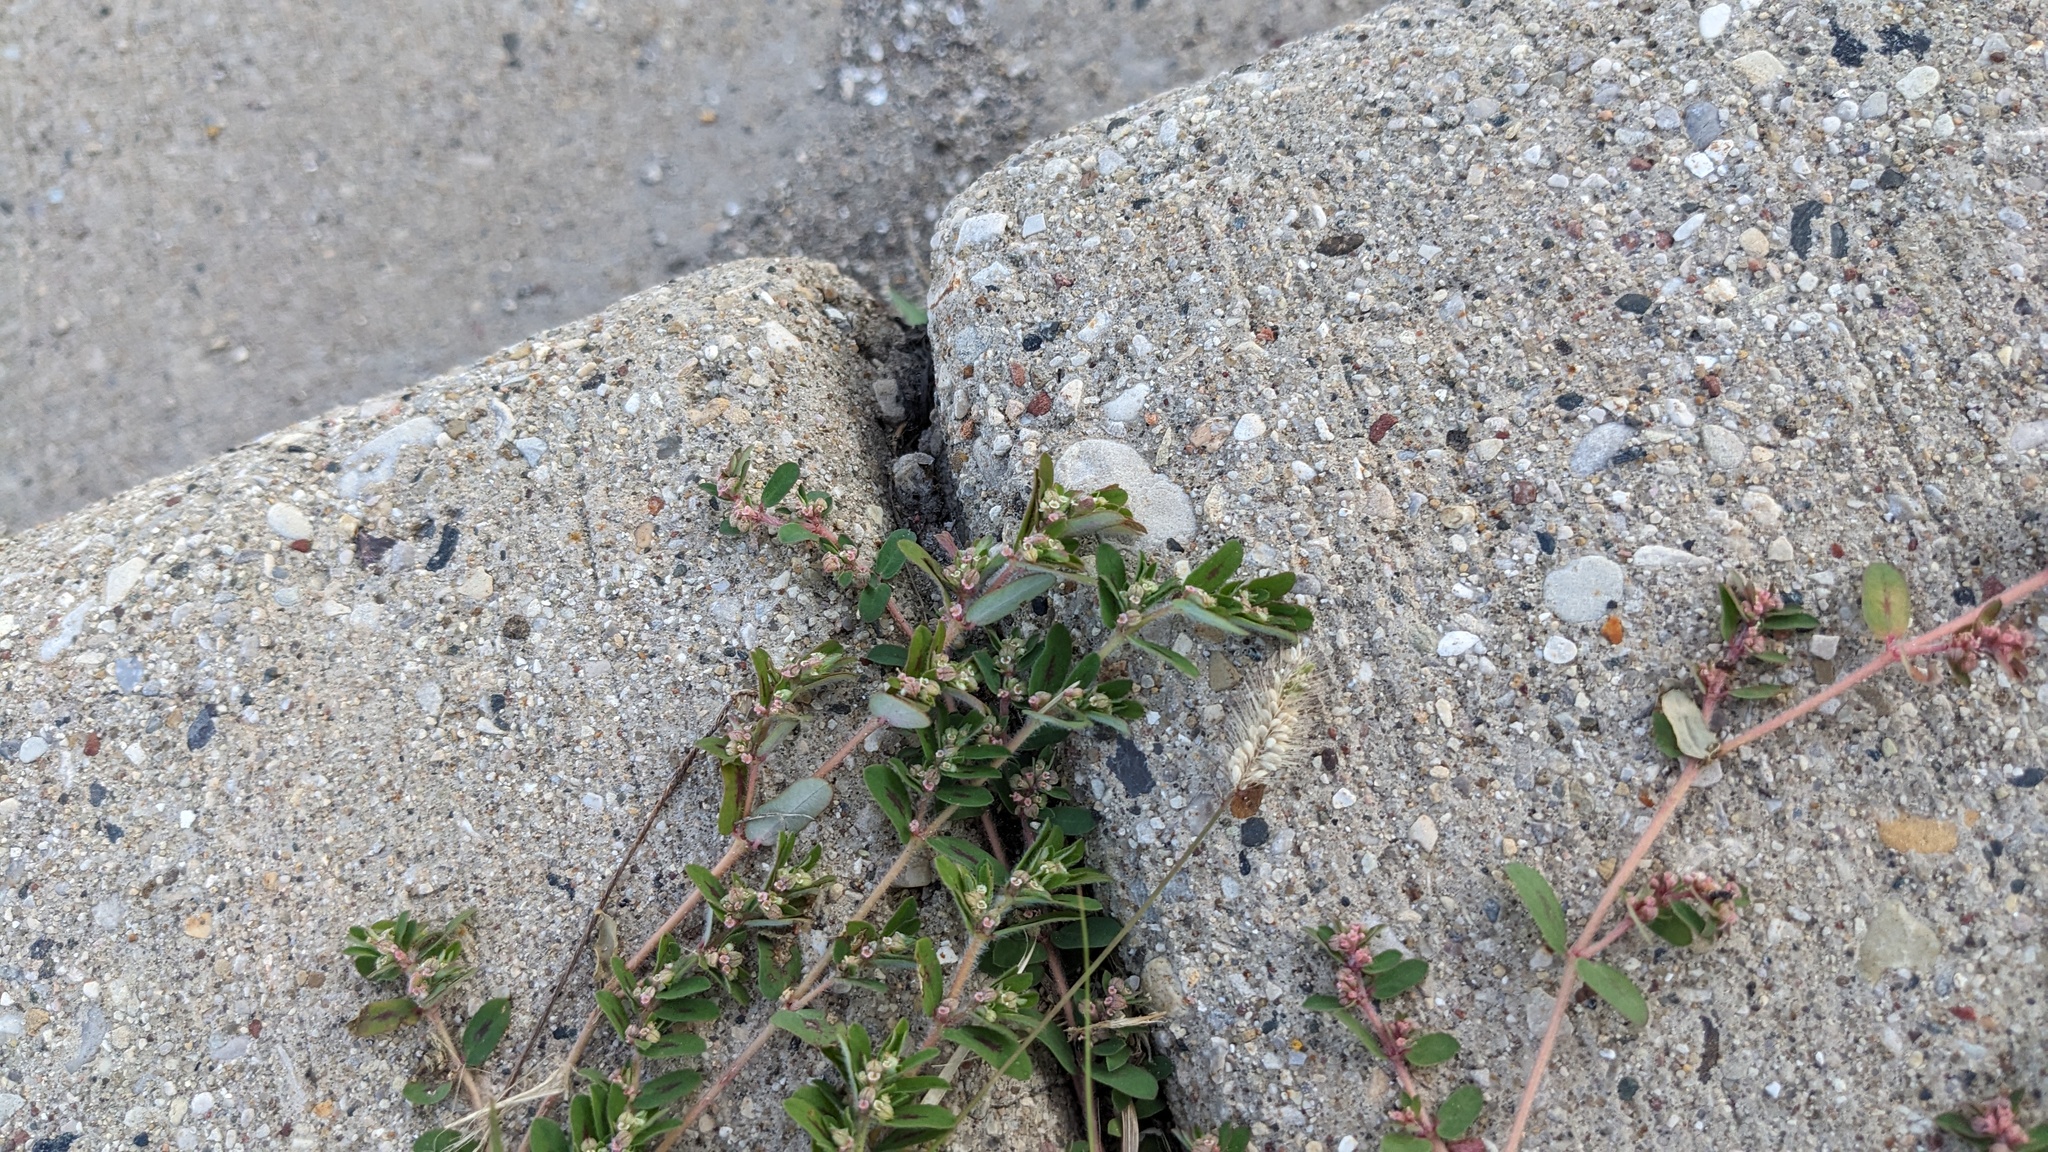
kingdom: Plantae
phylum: Tracheophyta
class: Magnoliopsida
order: Malpighiales
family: Euphorbiaceae
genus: Euphorbia
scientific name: Euphorbia maculata
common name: Spotted spurge
